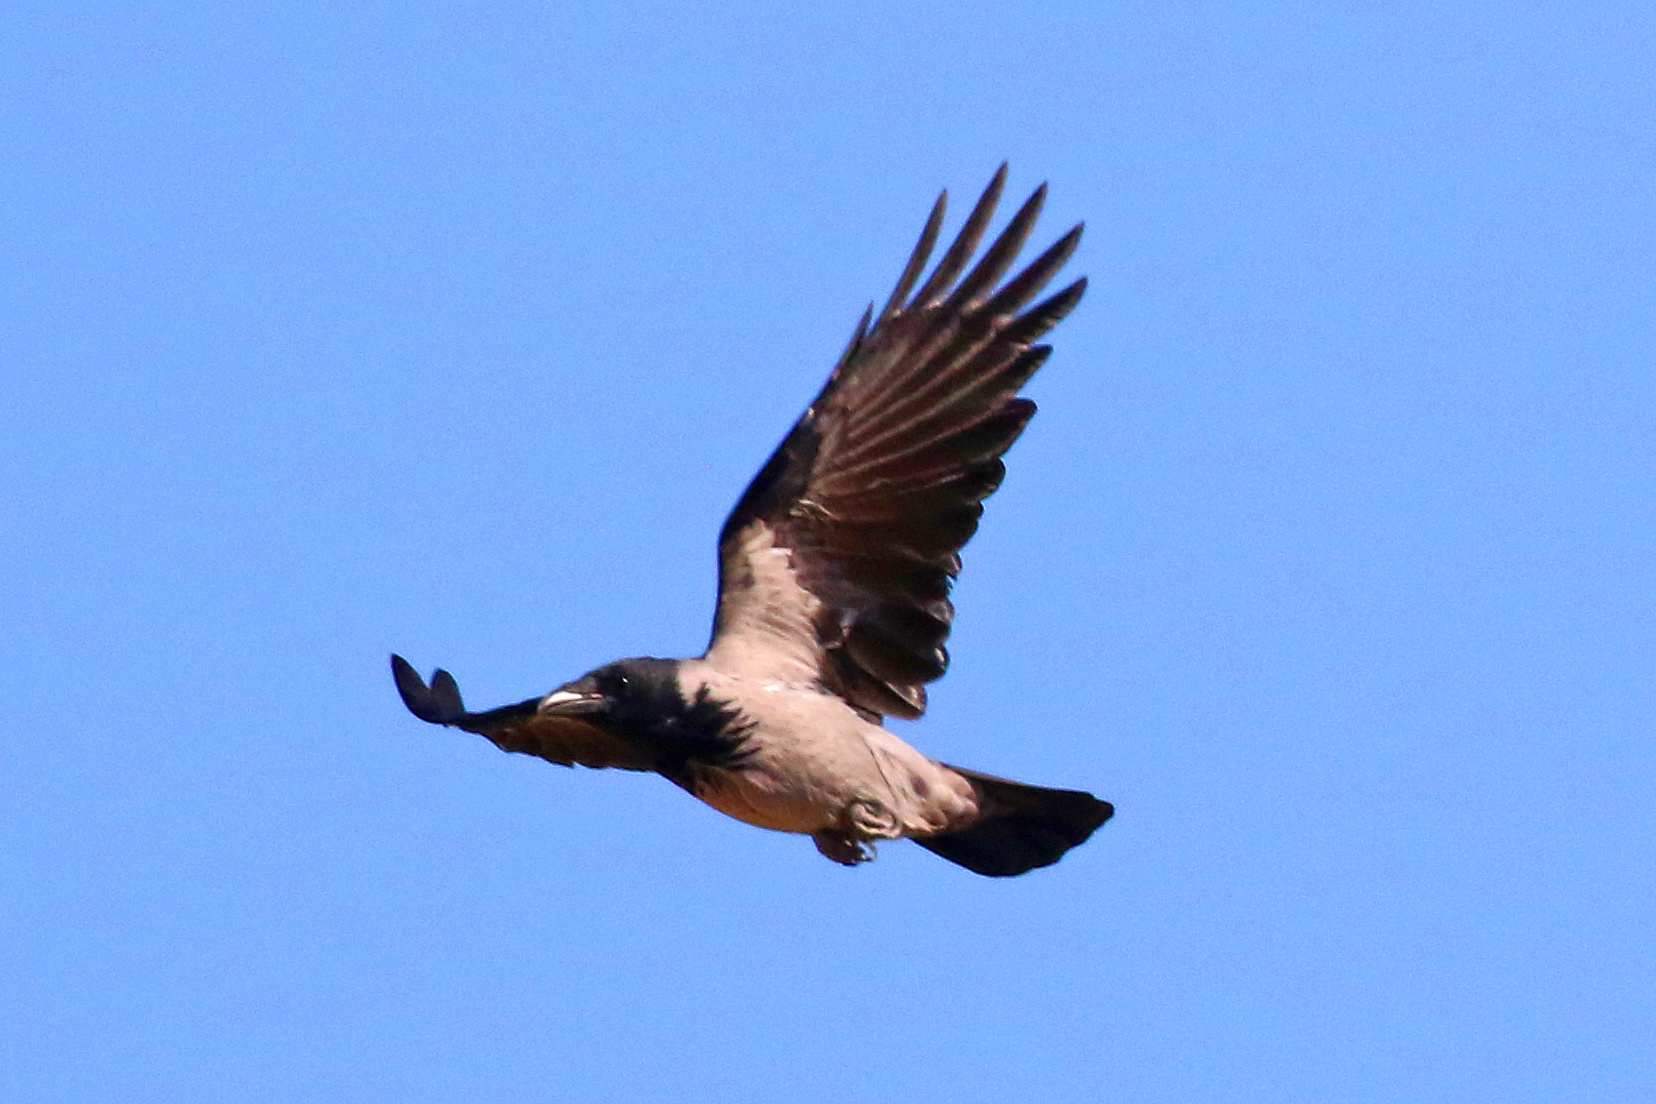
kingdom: Animalia
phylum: Chordata
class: Aves
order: Passeriformes
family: Corvidae
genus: Corvus
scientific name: Corvus cornix
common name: Hooded crow
